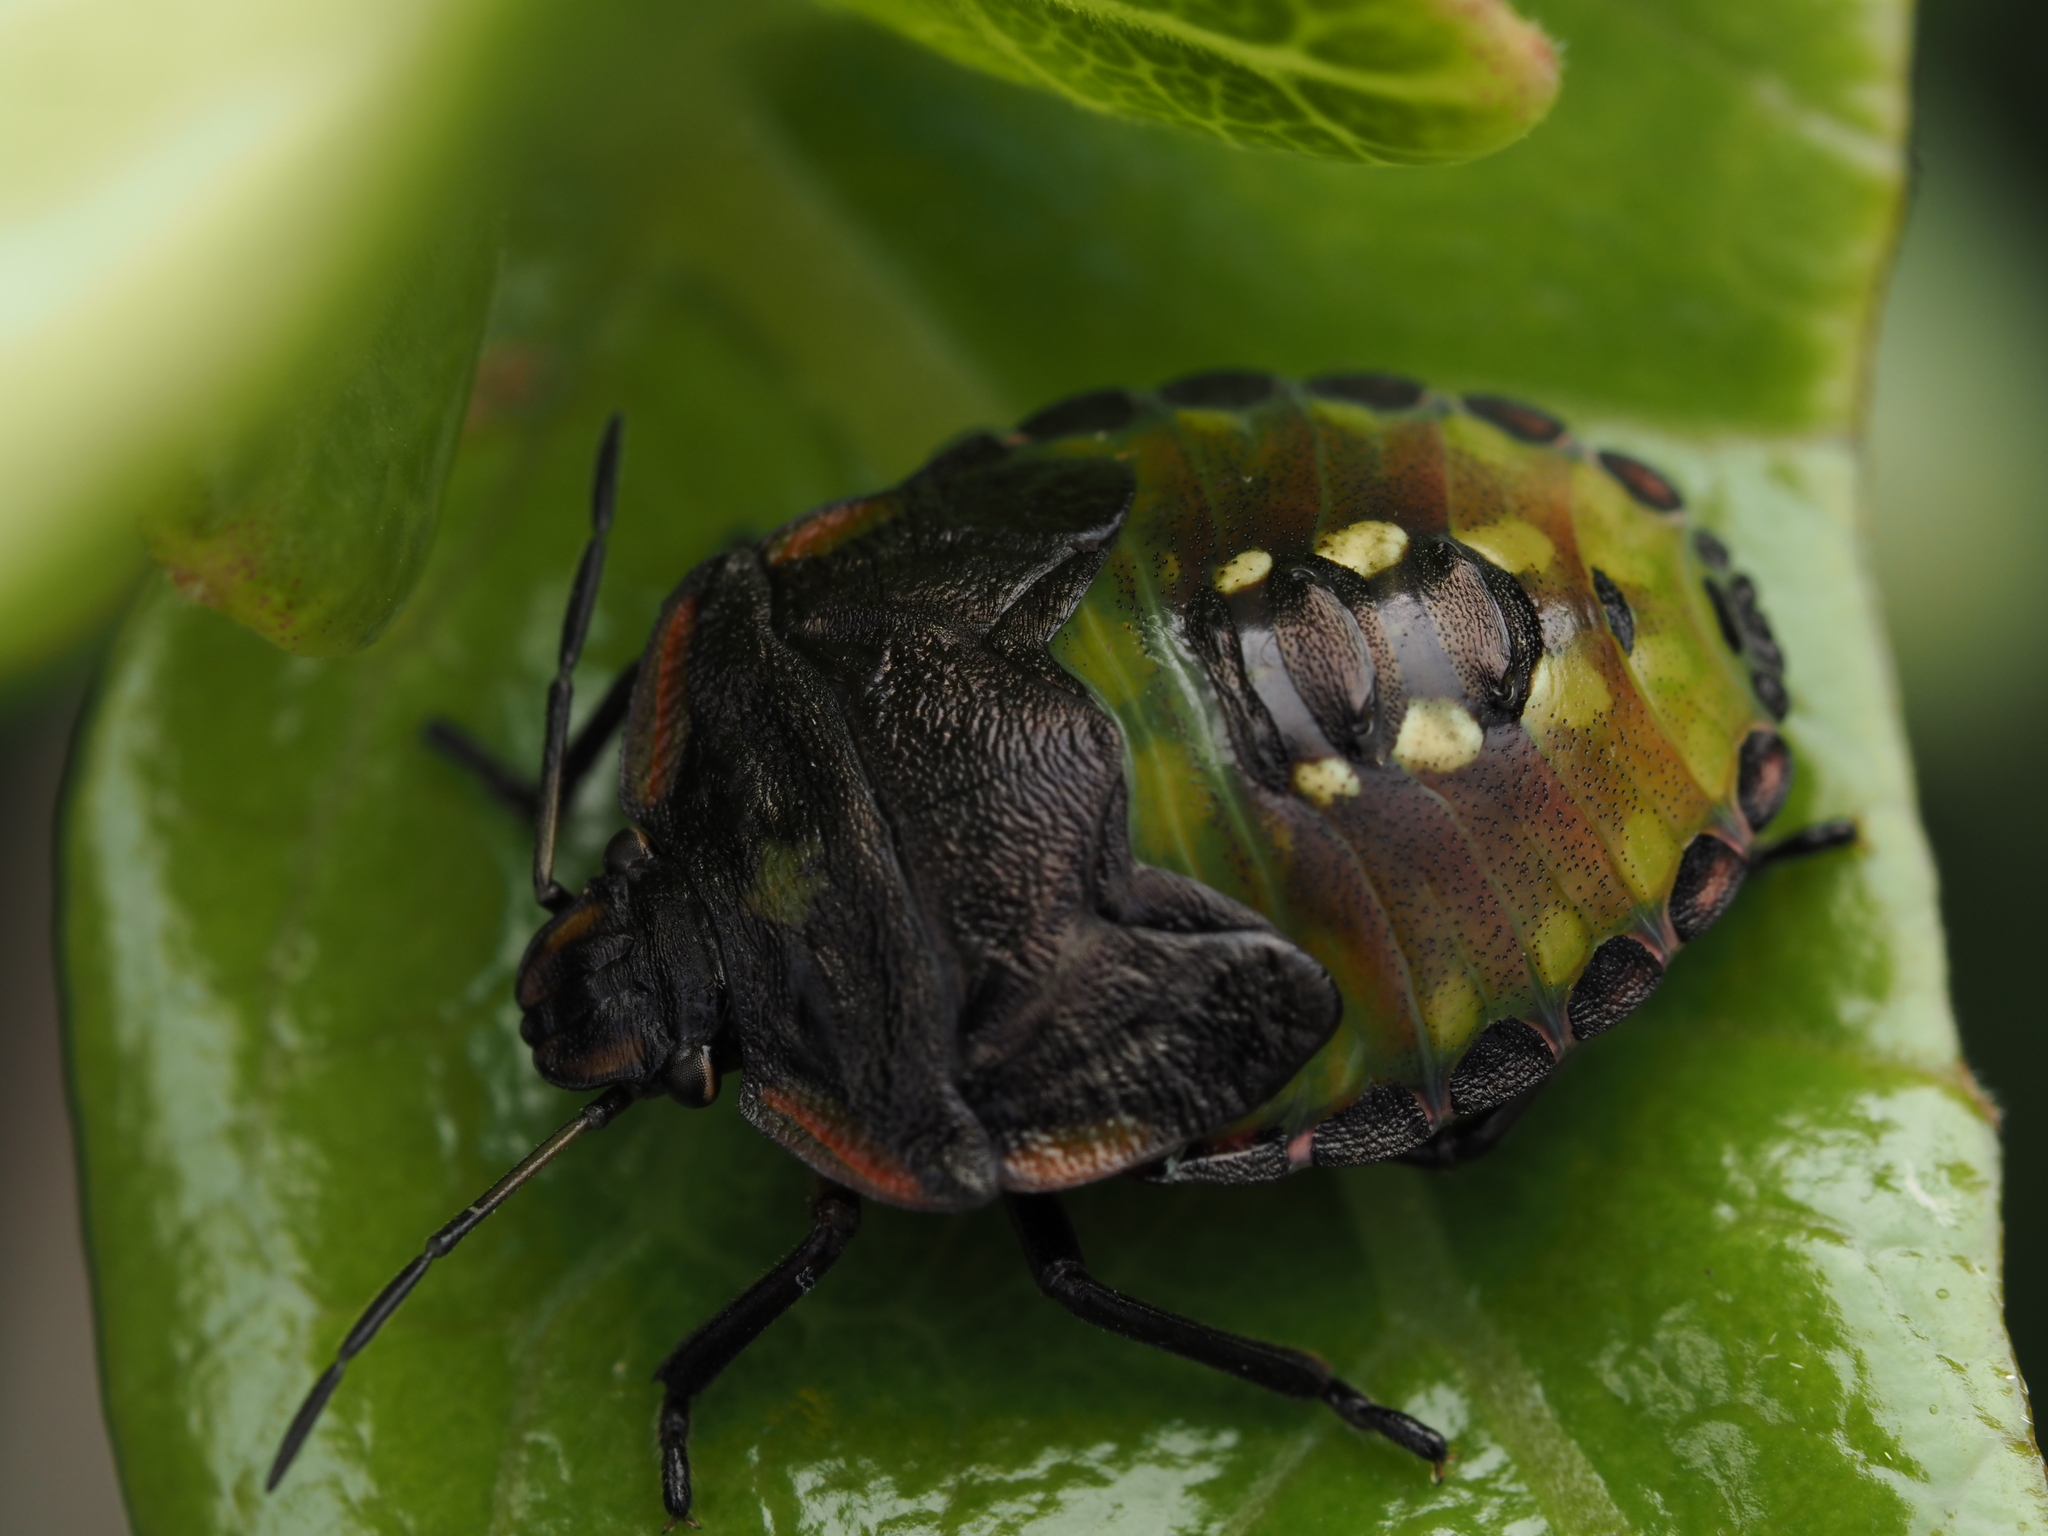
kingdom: Animalia
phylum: Arthropoda
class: Insecta
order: Hemiptera
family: Pentatomidae
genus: Nezara
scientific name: Nezara viridula
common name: Southern green stink bug
